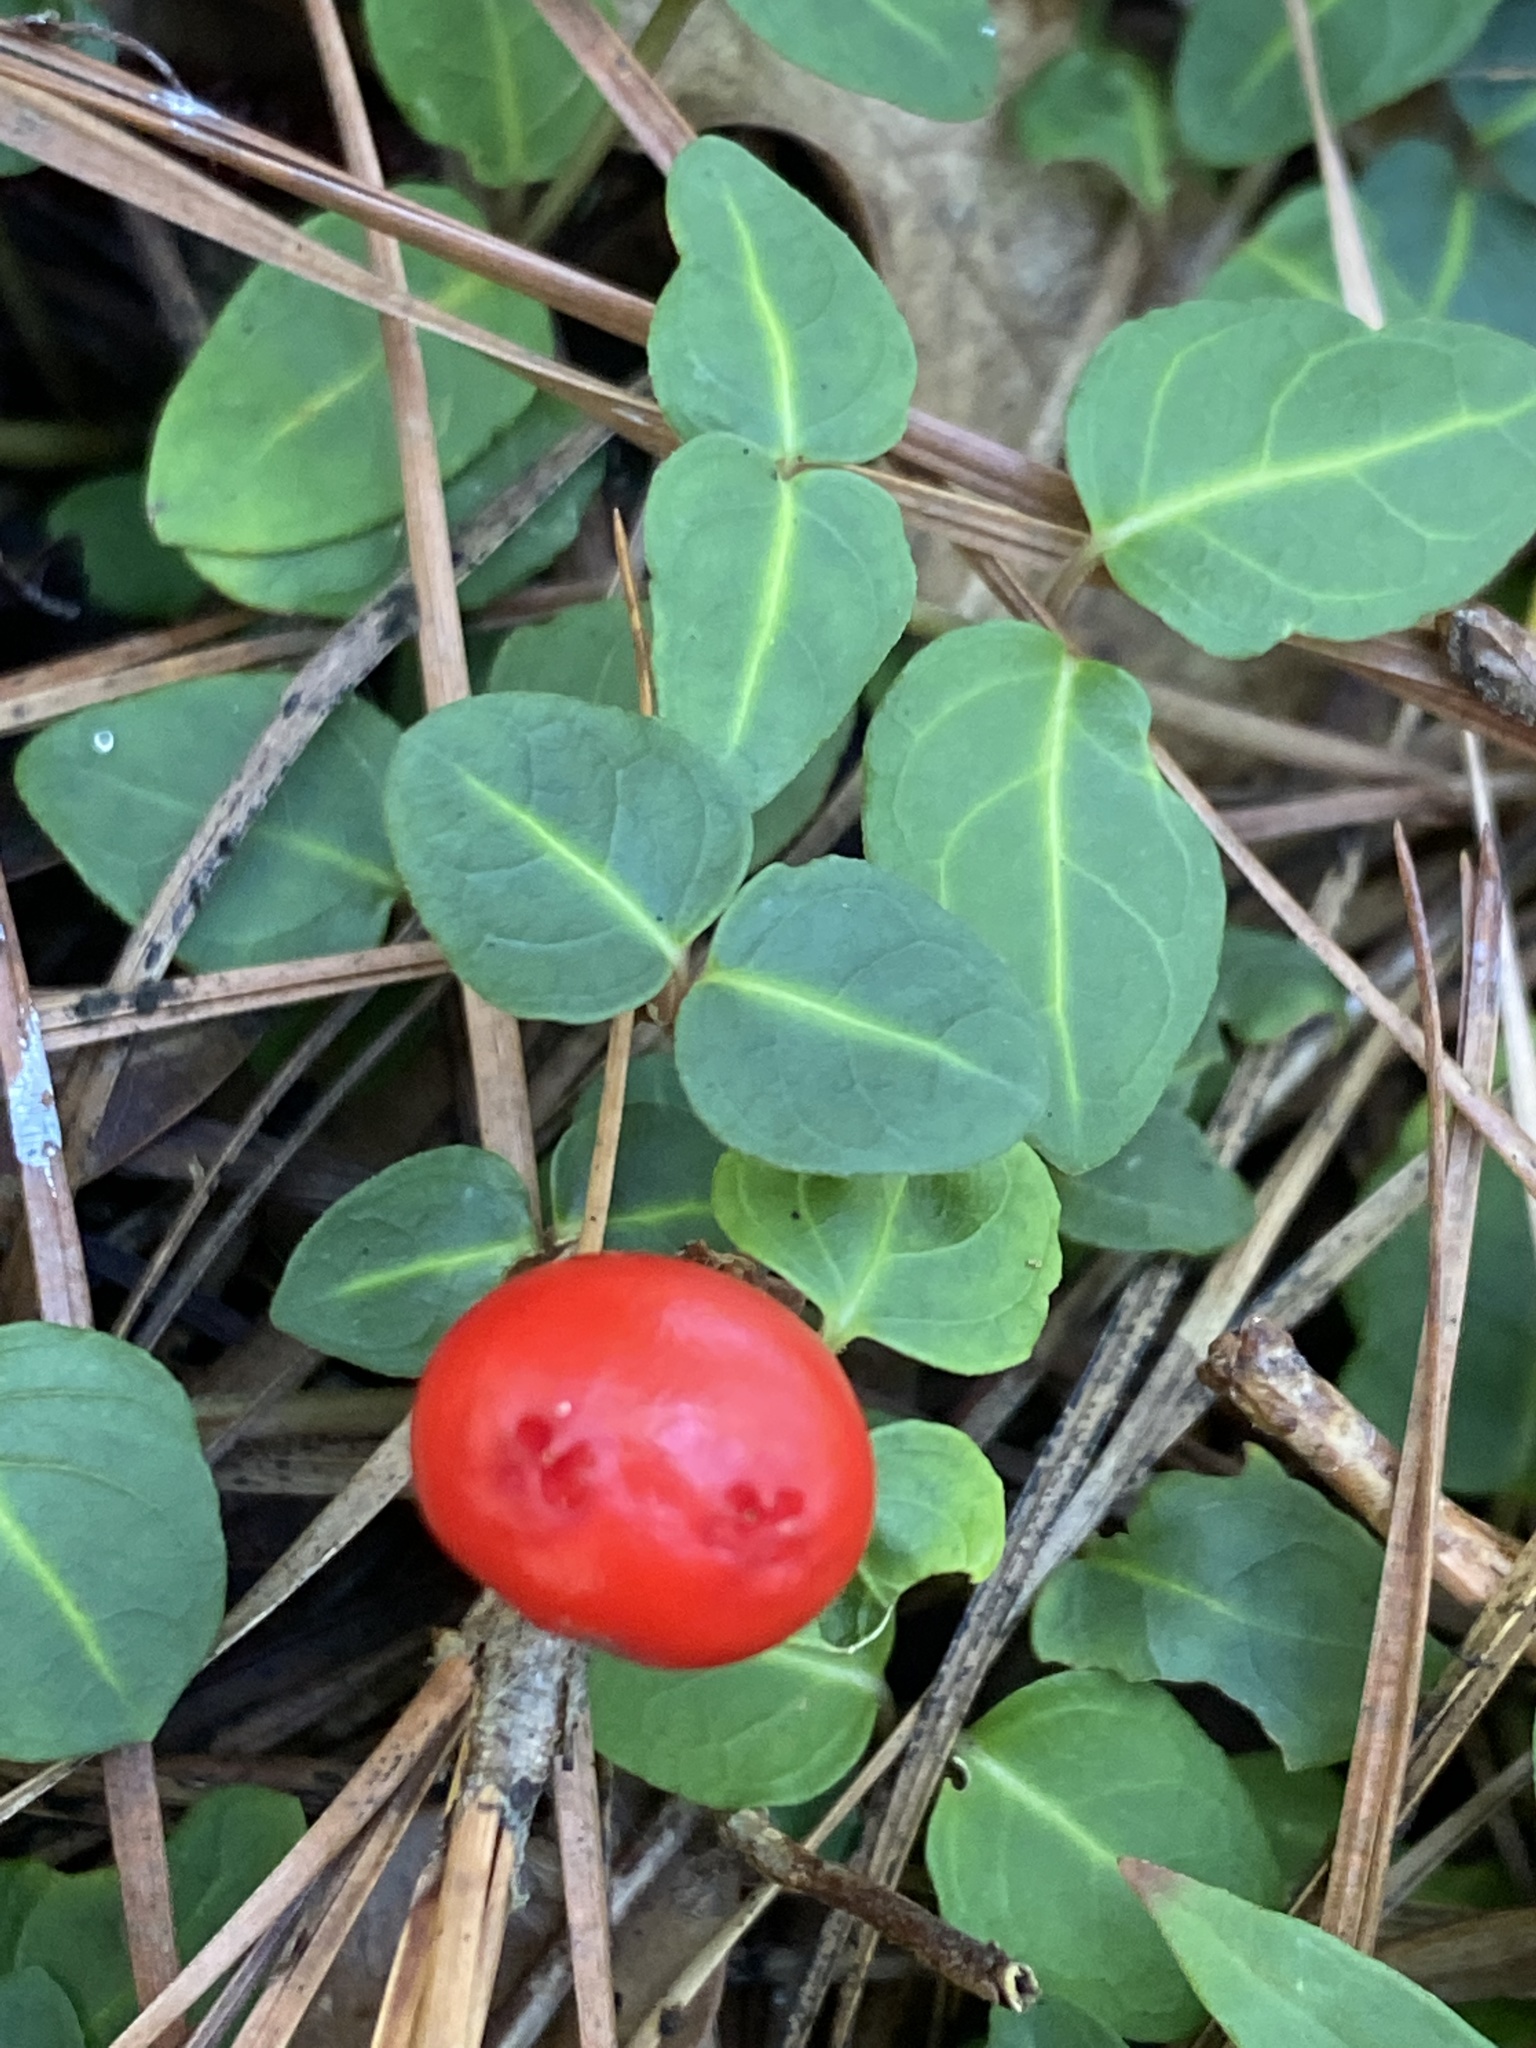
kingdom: Plantae
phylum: Tracheophyta
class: Magnoliopsida
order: Gentianales
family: Rubiaceae
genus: Mitchella
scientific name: Mitchella repens
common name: Partridge-berry
